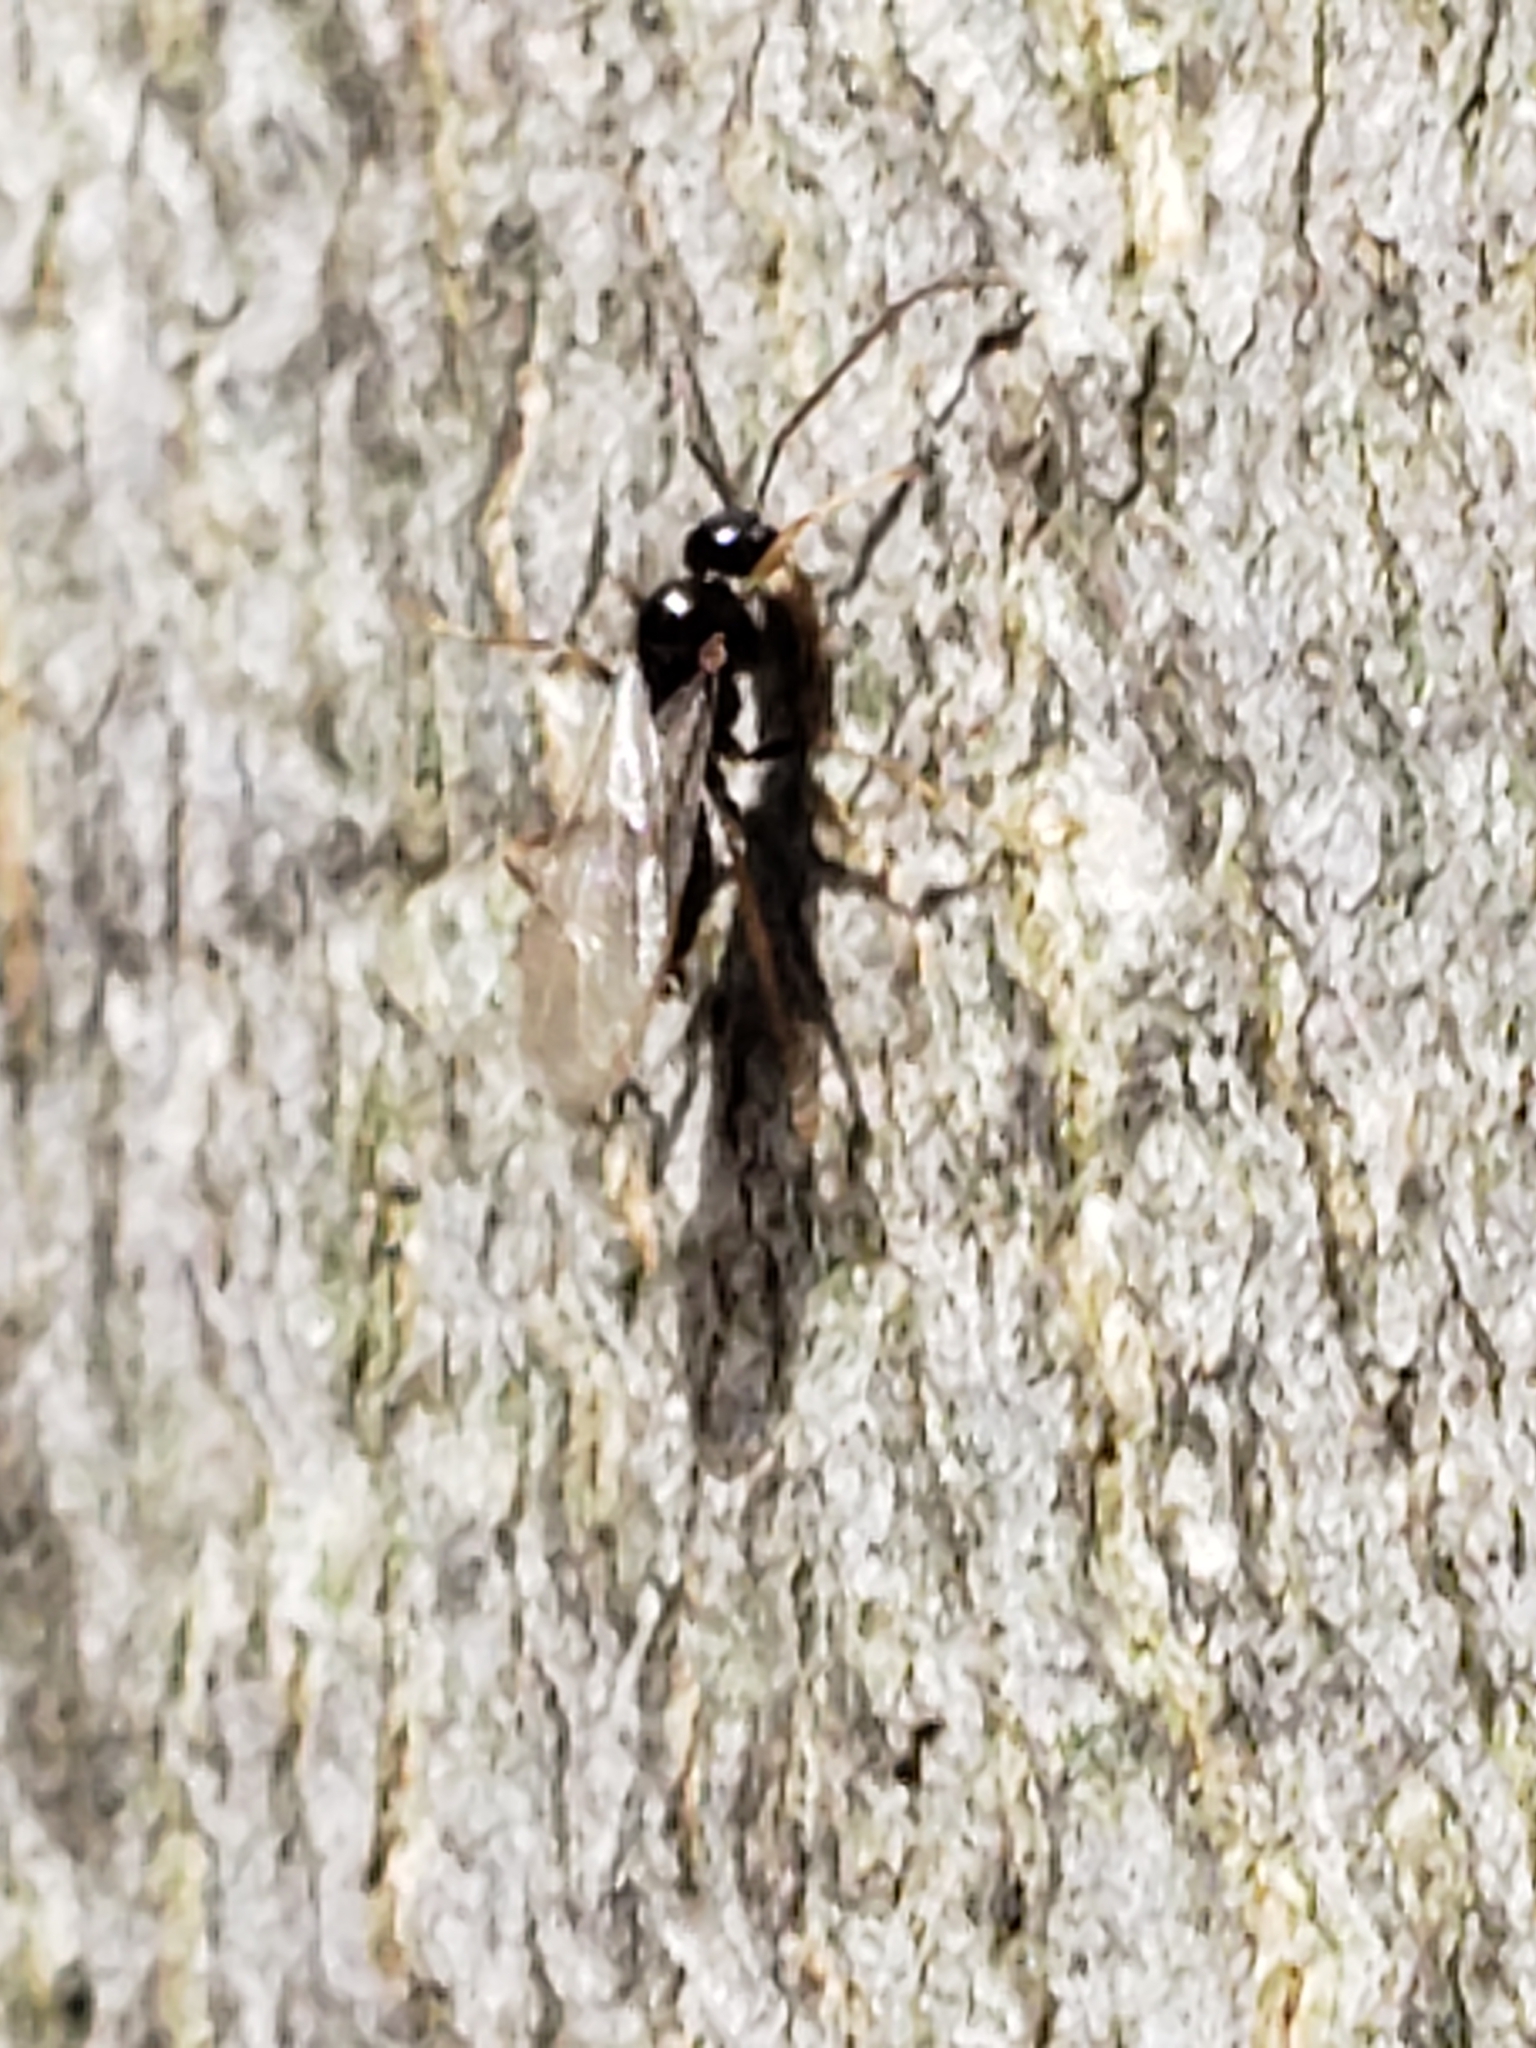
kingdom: Animalia
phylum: Arthropoda
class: Insecta
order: Hymenoptera
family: Formicidae
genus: Prenolepis
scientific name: Prenolepis imparis
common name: Small honey ant
